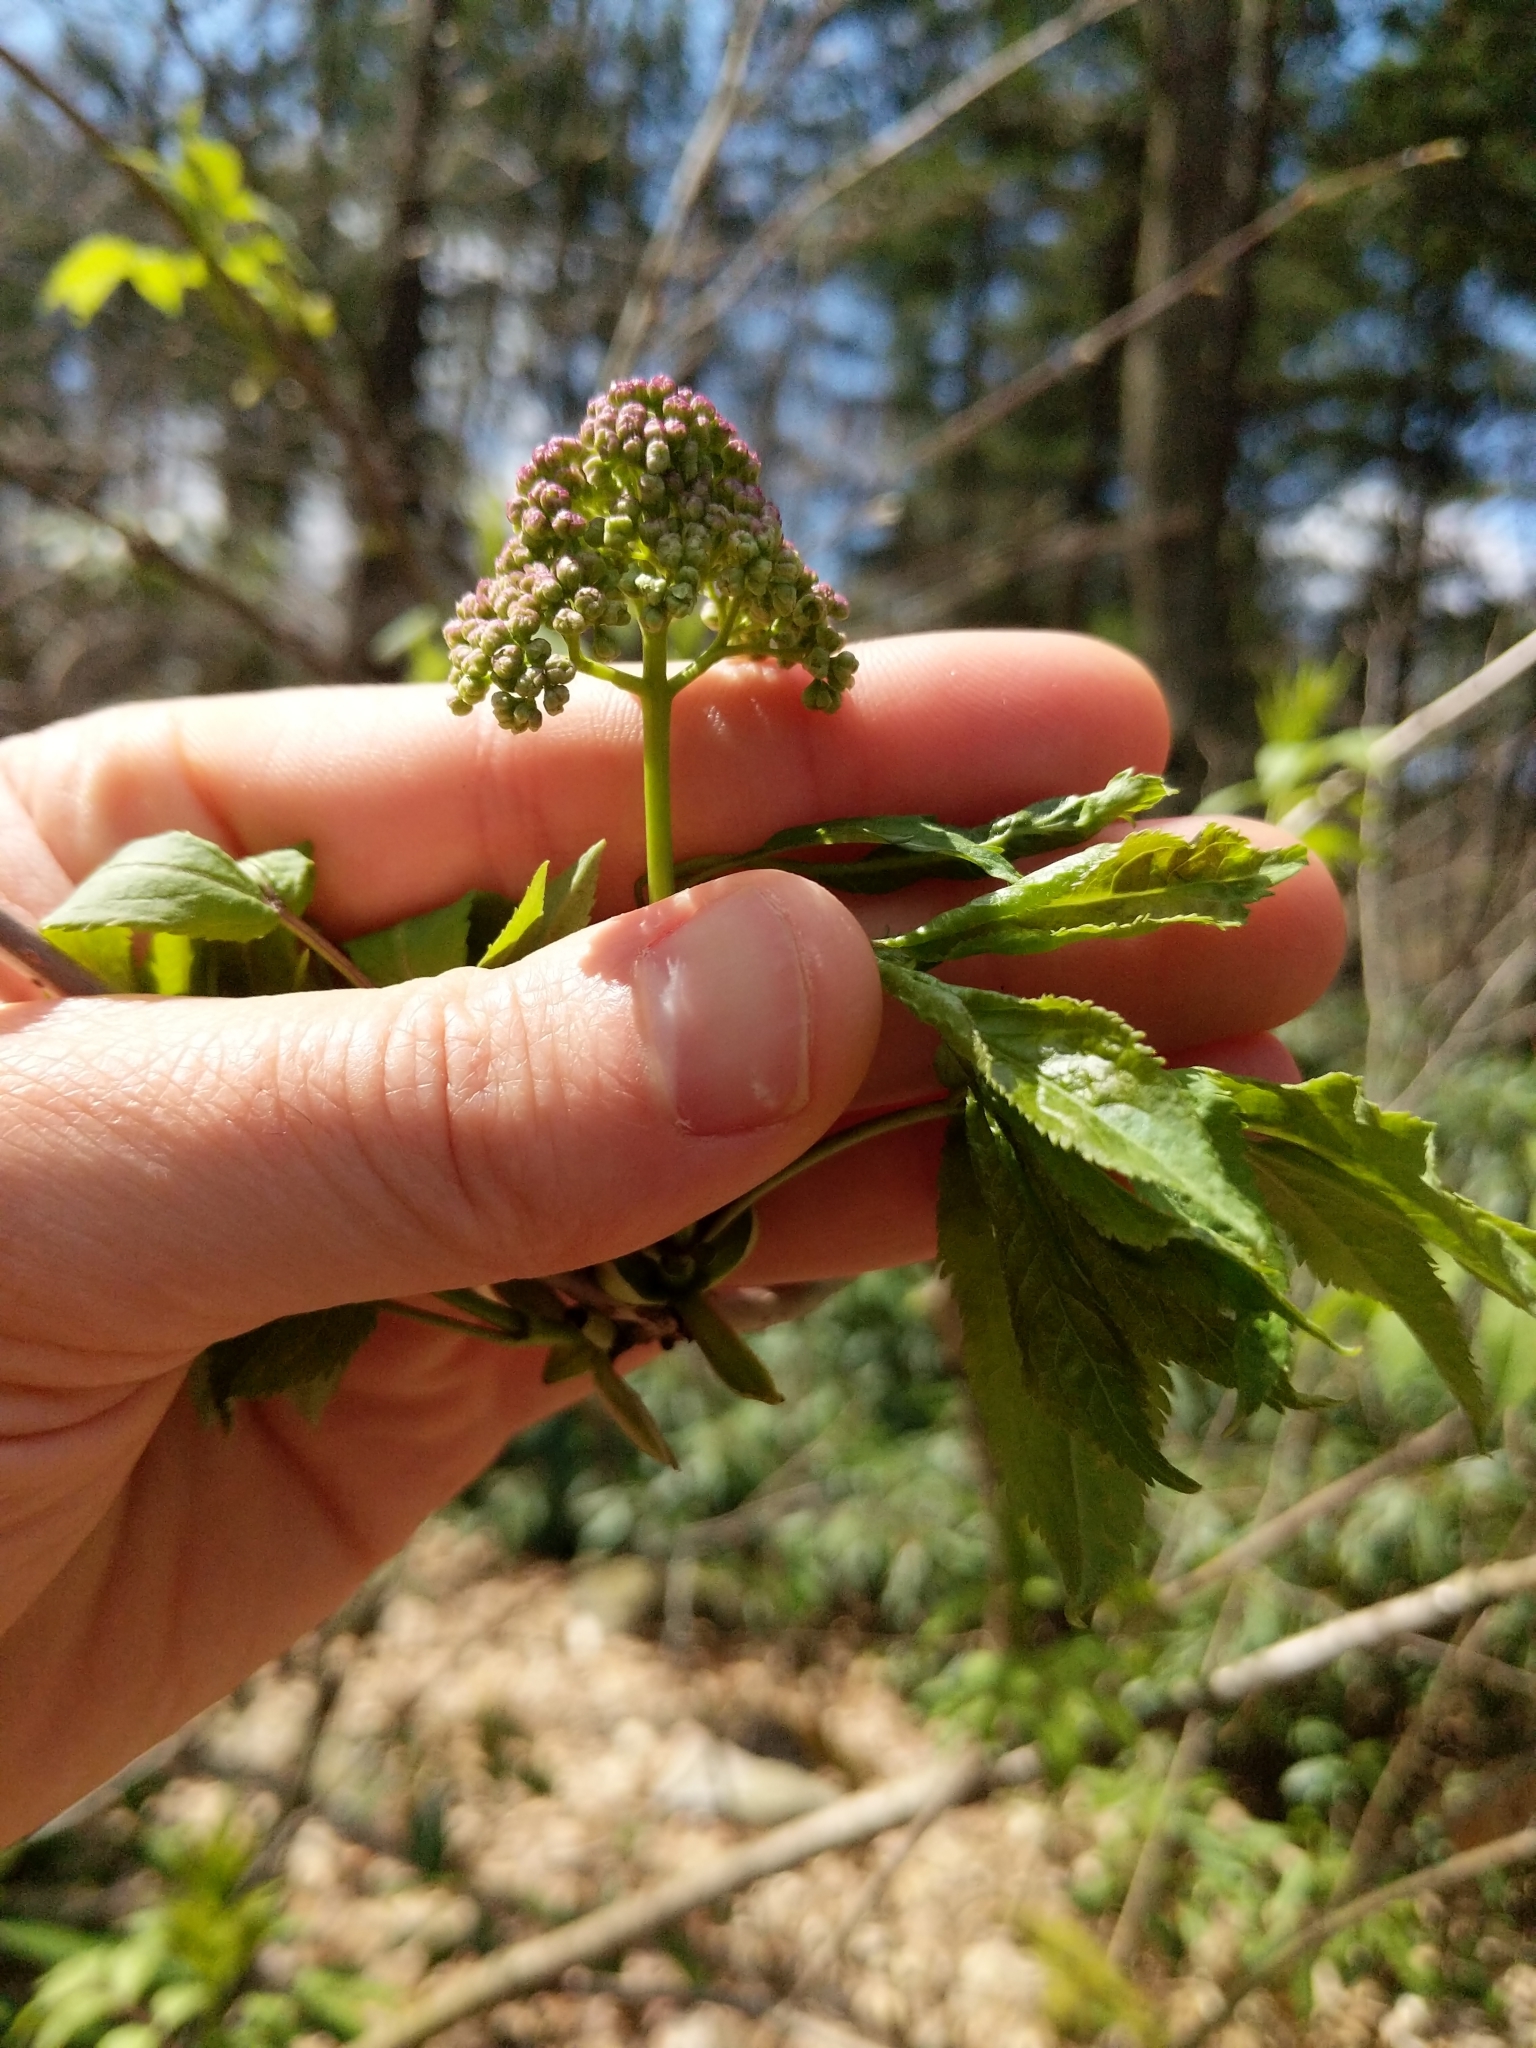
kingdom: Plantae
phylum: Tracheophyta
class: Magnoliopsida
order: Dipsacales
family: Viburnaceae
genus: Sambucus
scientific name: Sambucus racemosa
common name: Red-berried elder
